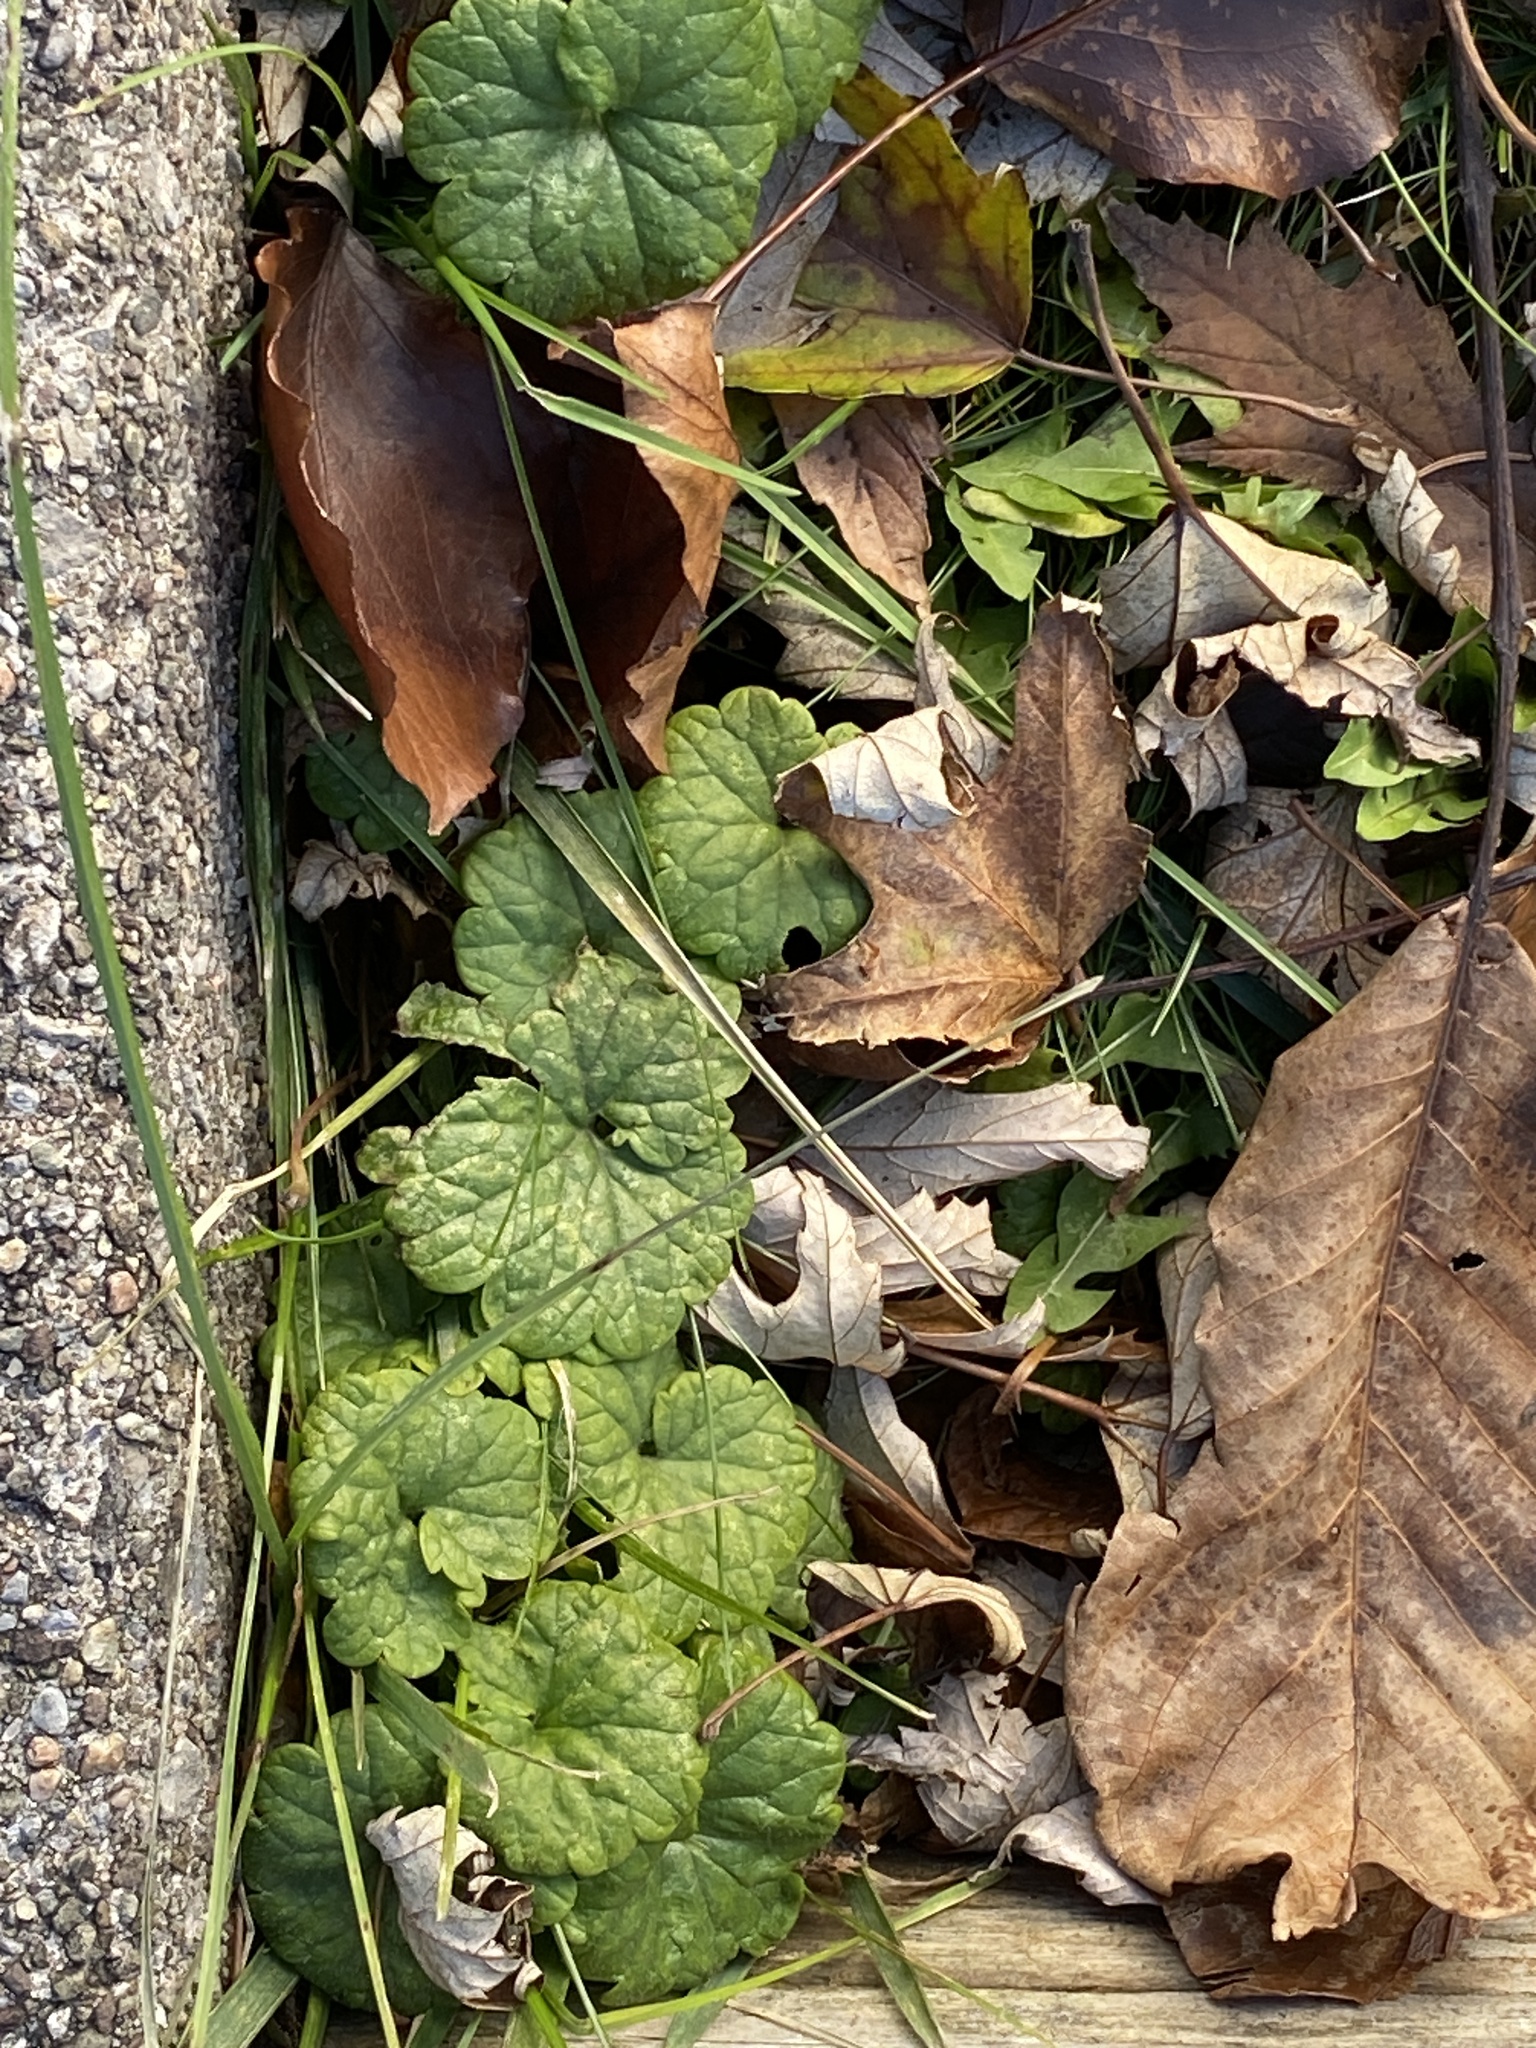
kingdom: Plantae
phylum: Tracheophyta
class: Magnoliopsida
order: Lamiales
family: Lamiaceae
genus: Glechoma
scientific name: Glechoma hederacea
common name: Ground ivy
